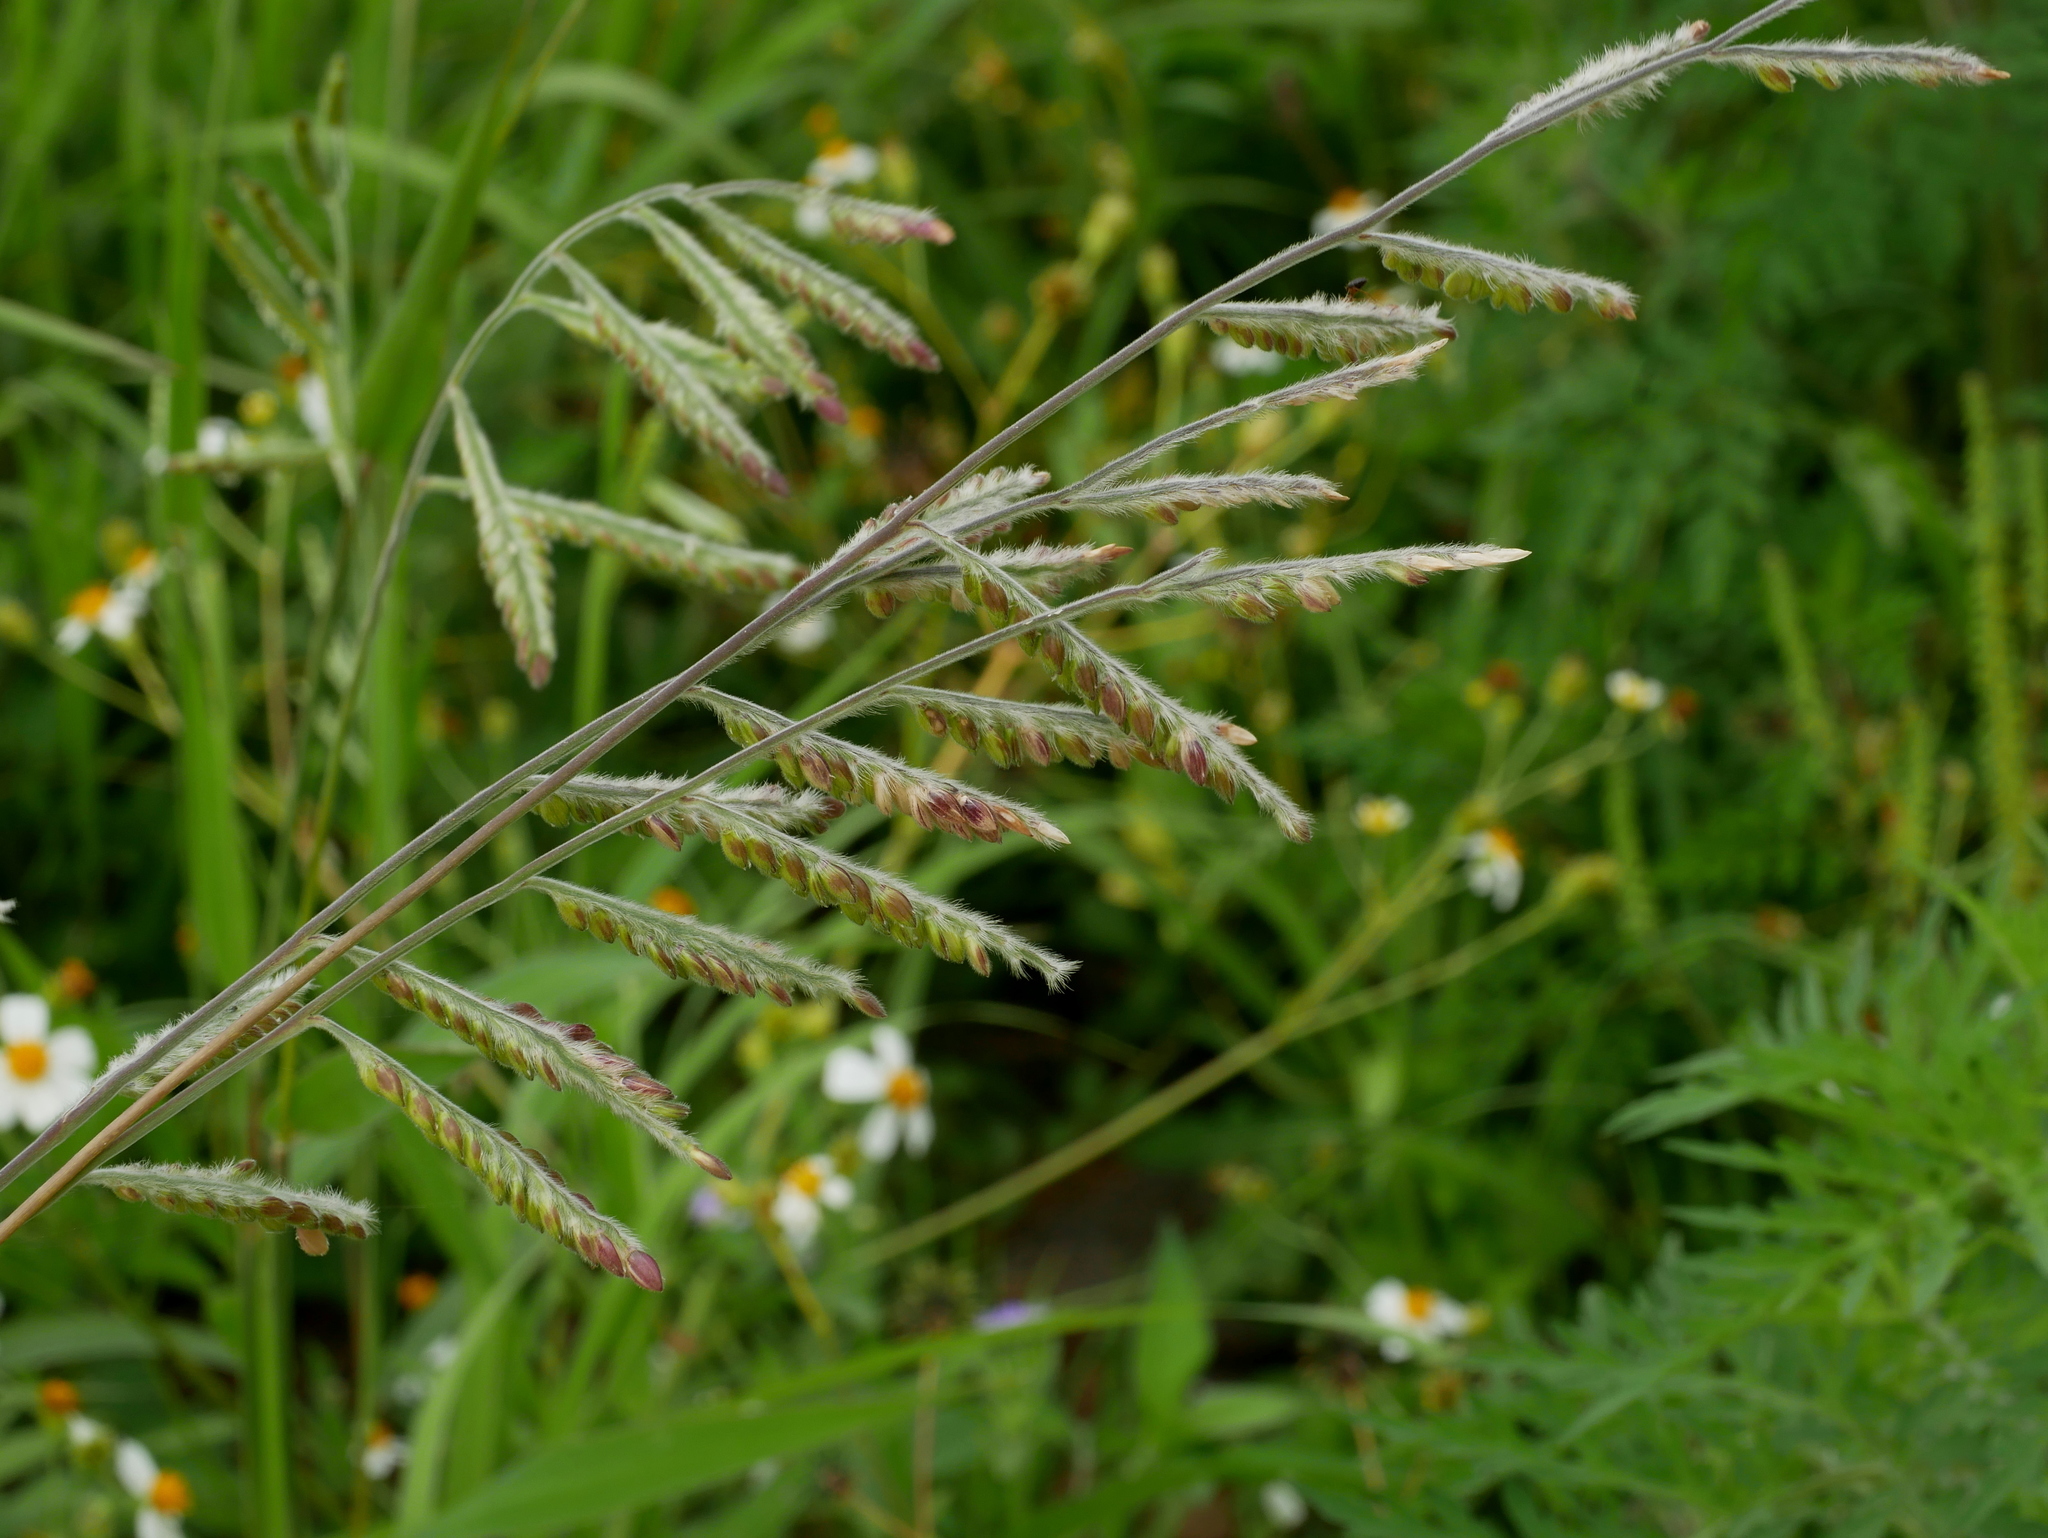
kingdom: Plantae
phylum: Tracheophyta
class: Liliopsida
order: Poales
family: Poaceae
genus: Eriochloa
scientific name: Eriochloa villosa
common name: Hairy cupgrass
